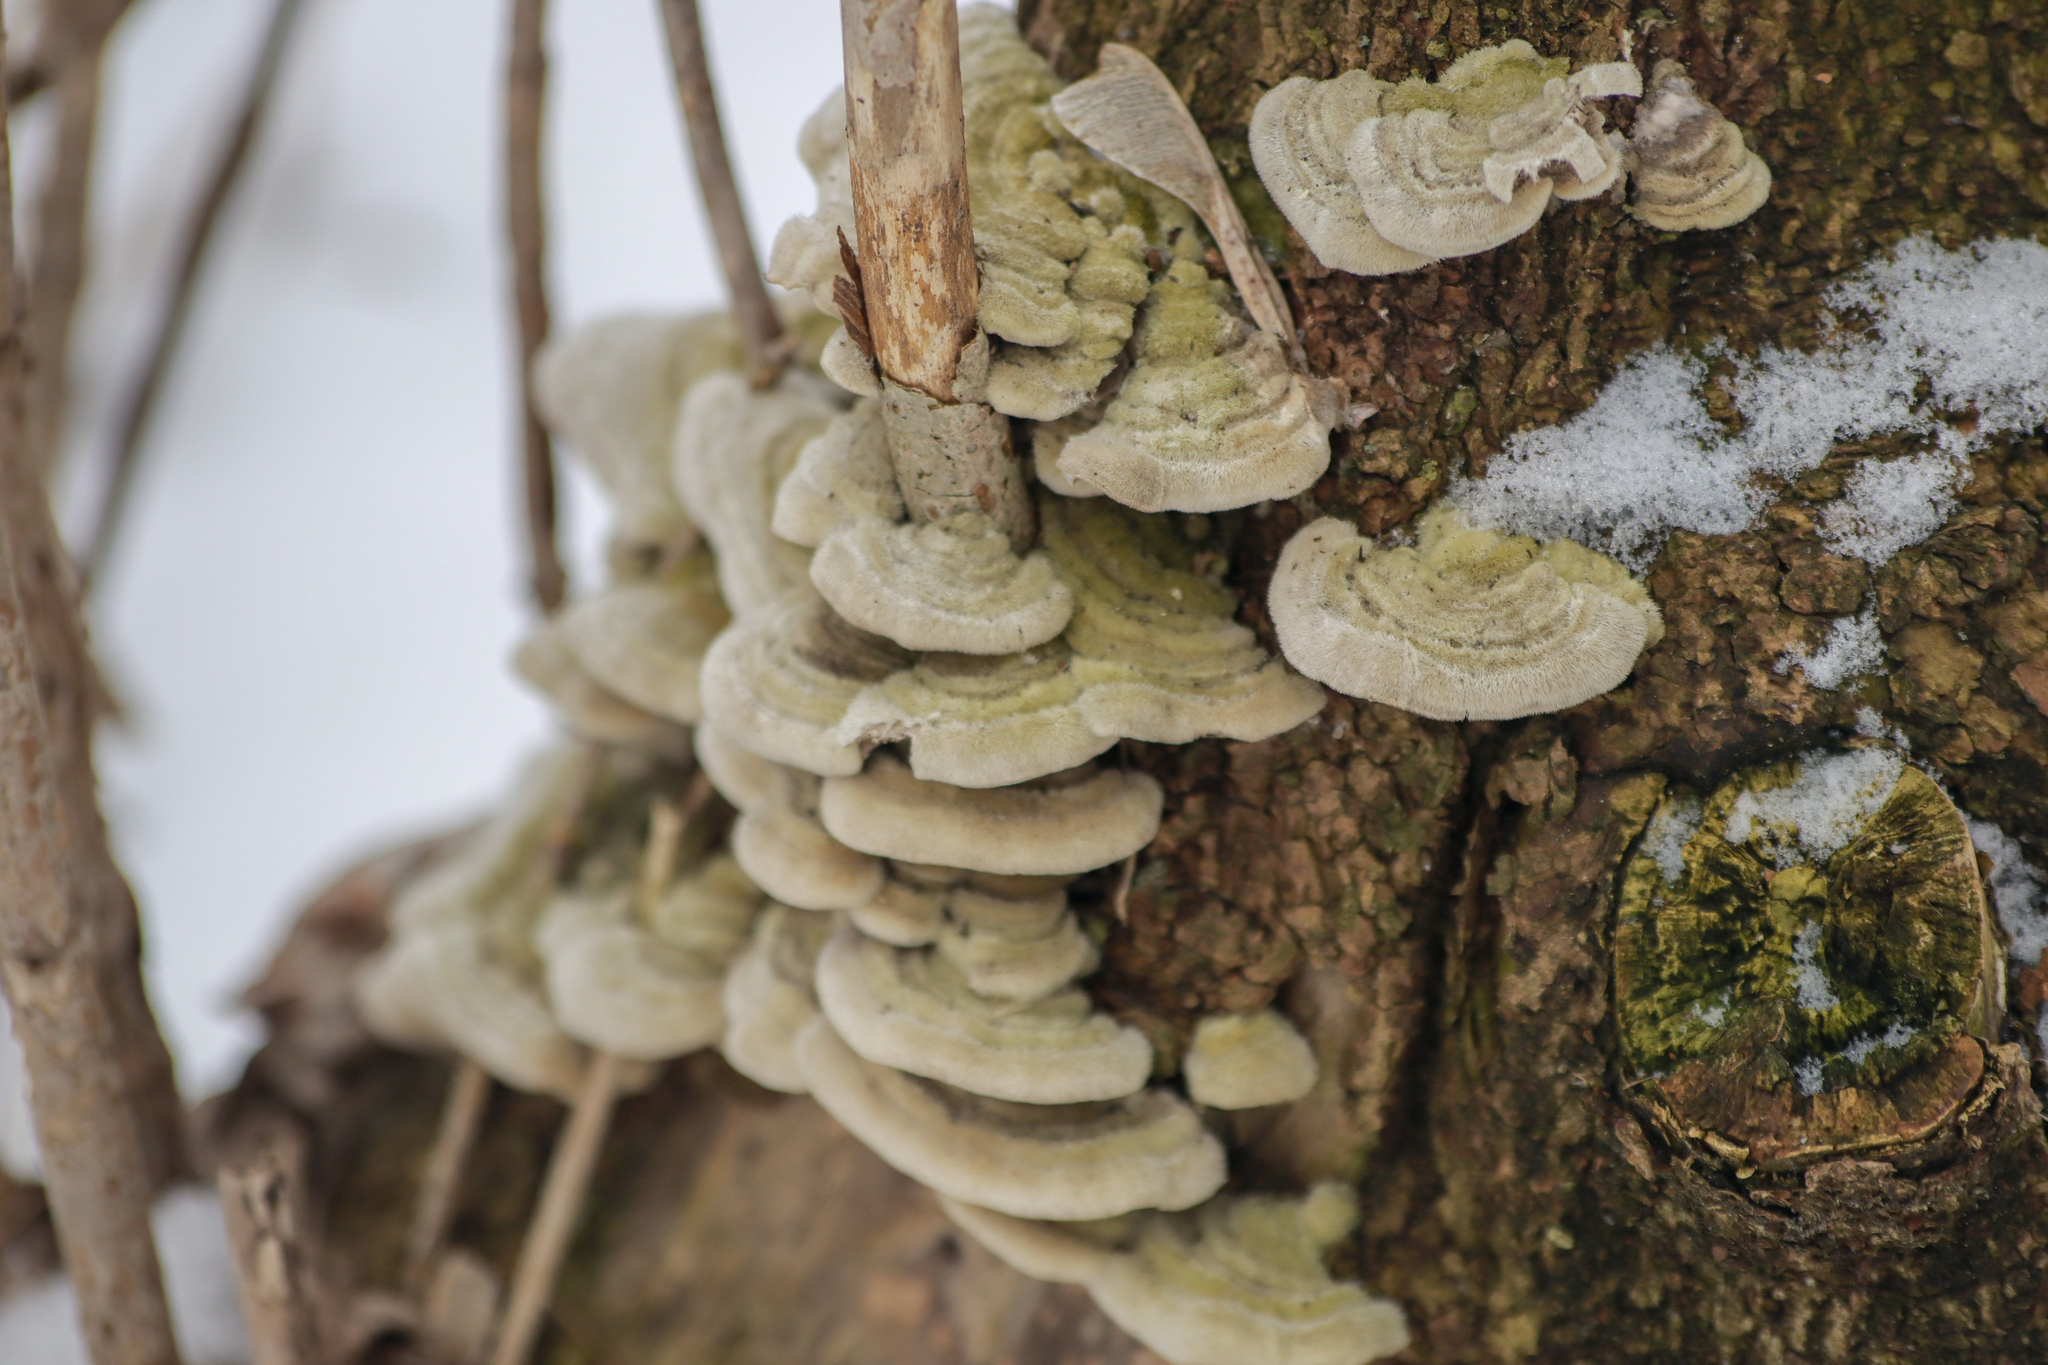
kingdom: Fungi
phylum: Basidiomycota
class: Agaricomycetes
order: Polyporales
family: Cerrenaceae
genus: Cerrena
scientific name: Cerrena unicolor
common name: Mossy maze polypore
